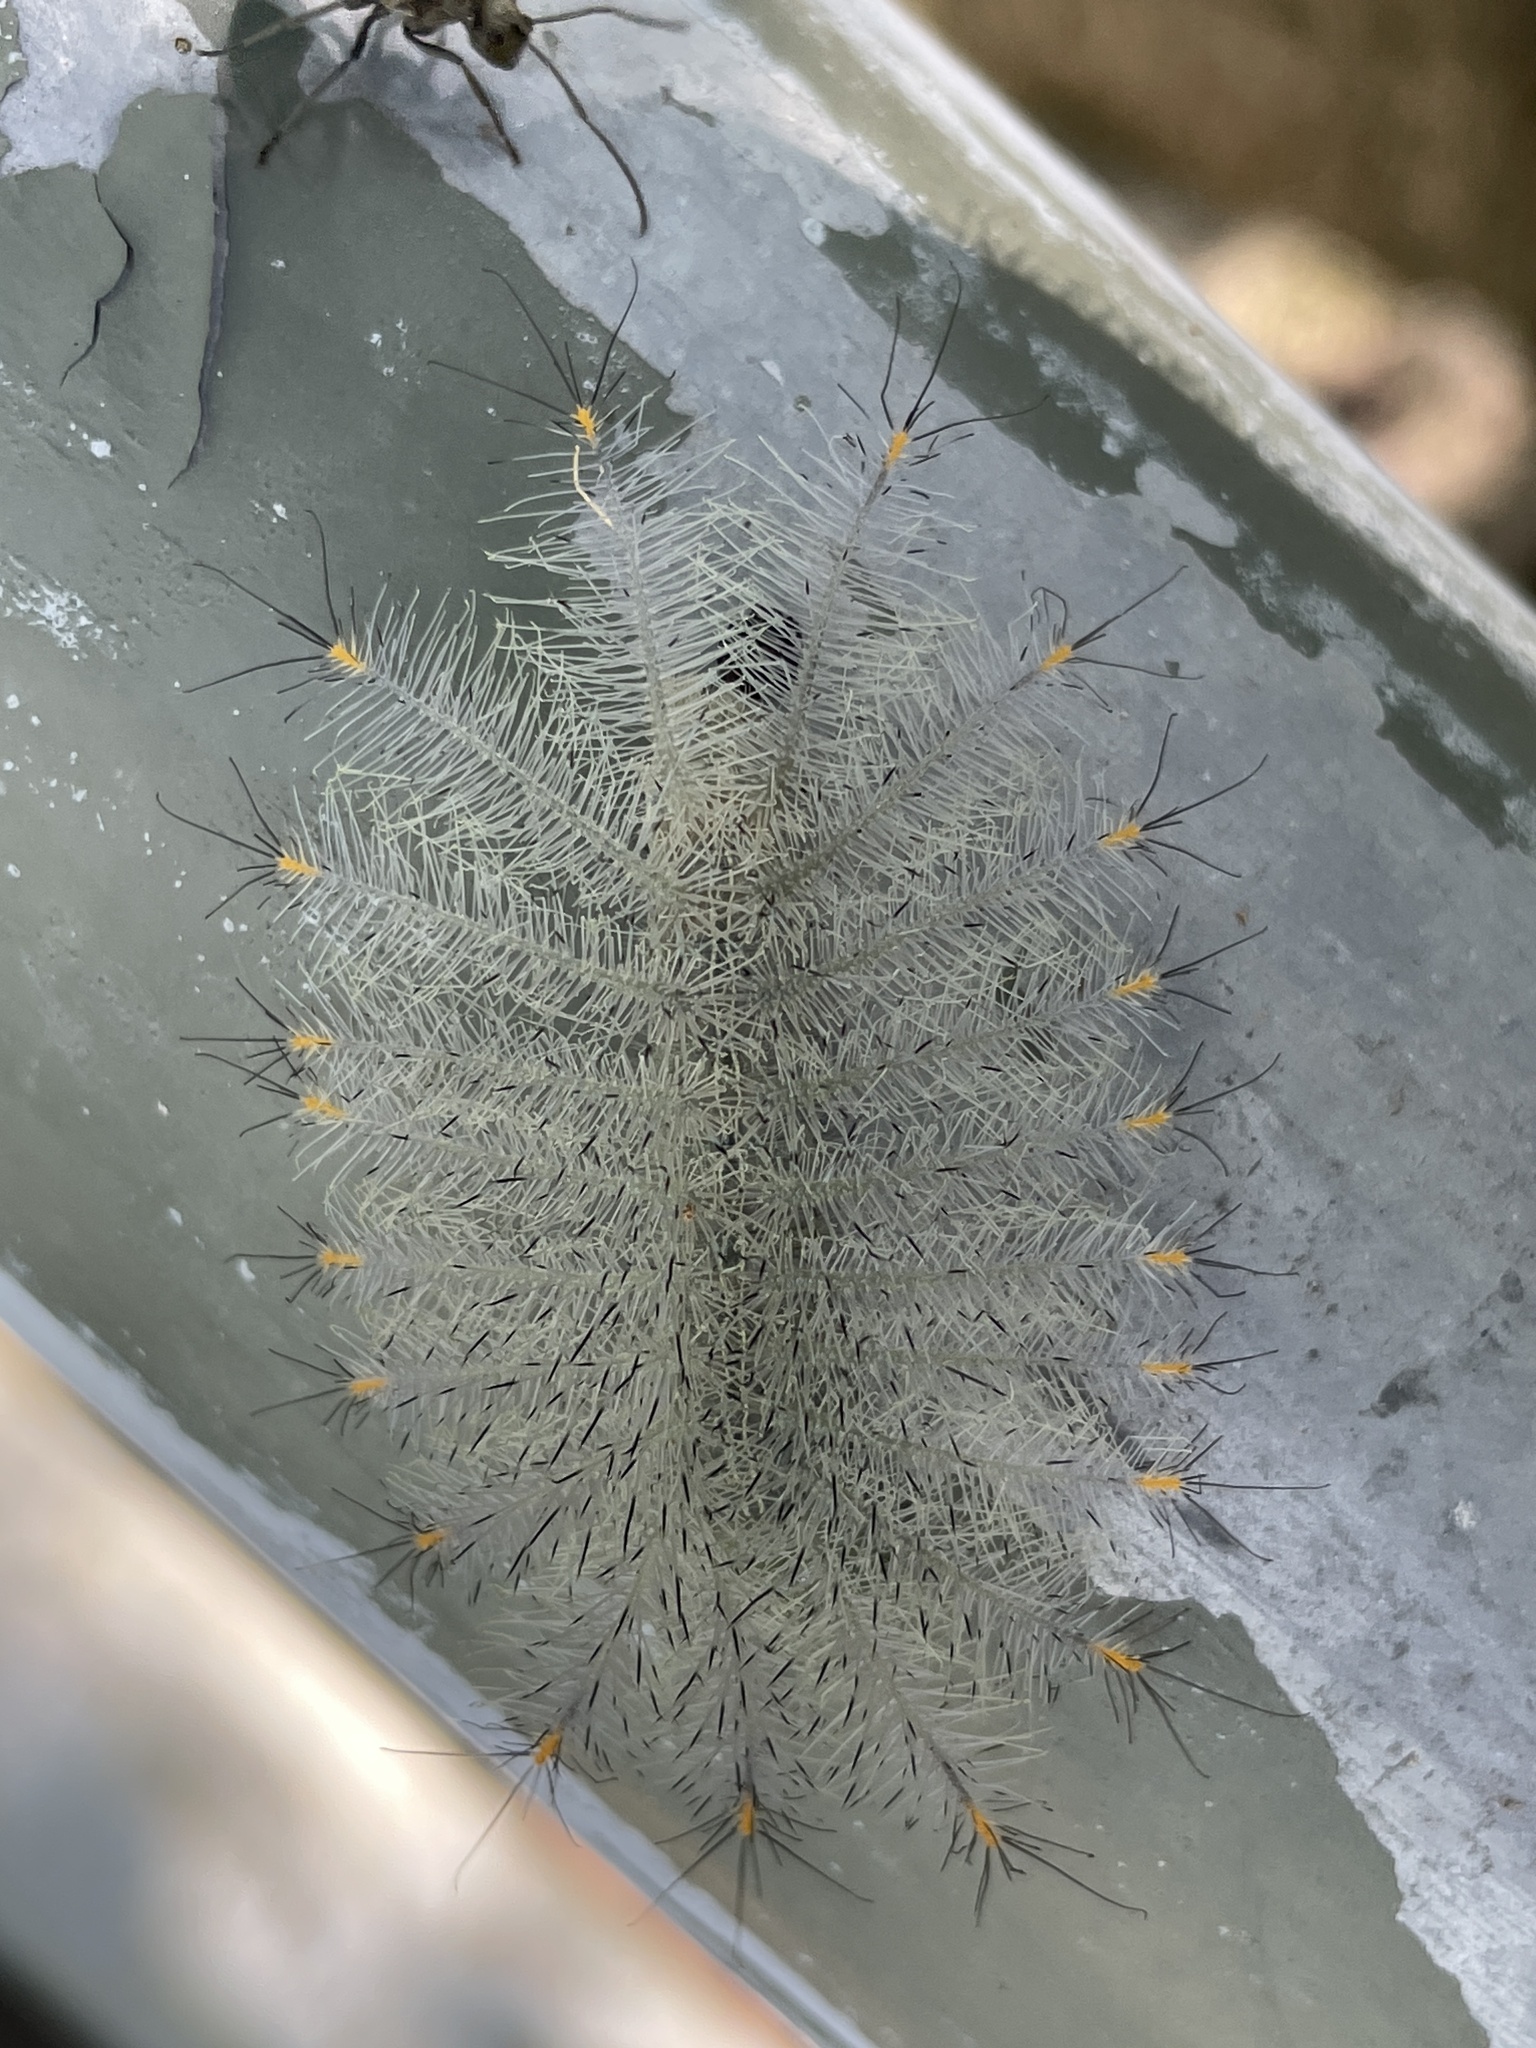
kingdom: Animalia
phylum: Arthropoda
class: Insecta
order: Lepidoptera
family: Nymphalidae
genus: Lexias
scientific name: Lexias pardalis
